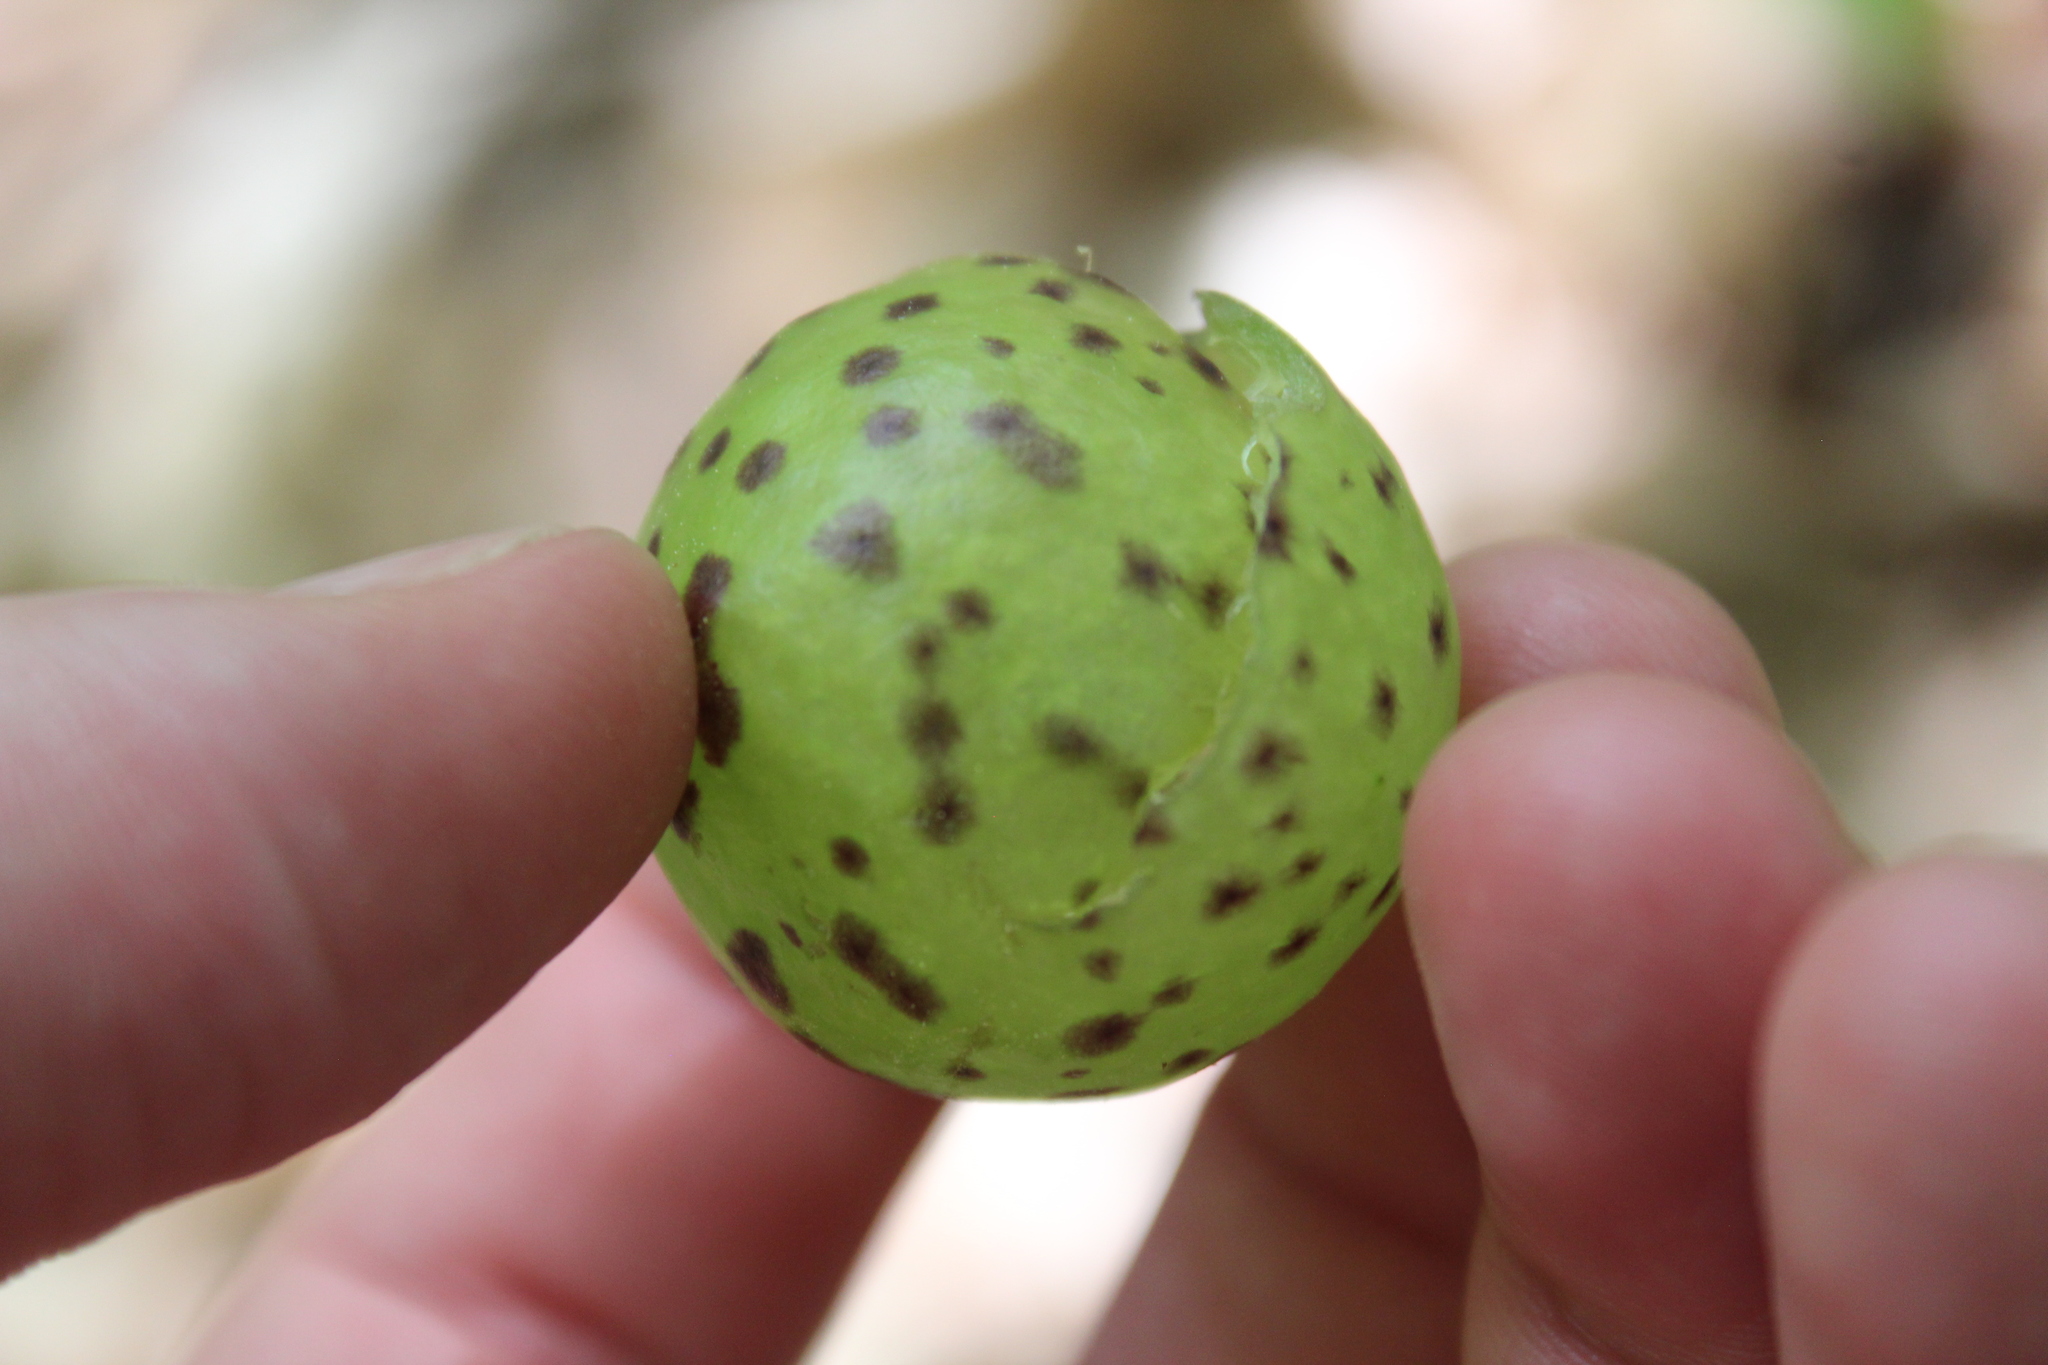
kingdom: Animalia
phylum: Arthropoda
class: Insecta
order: Hymenoptera
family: Cynipidae
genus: Amphibolips
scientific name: Amphibolips
